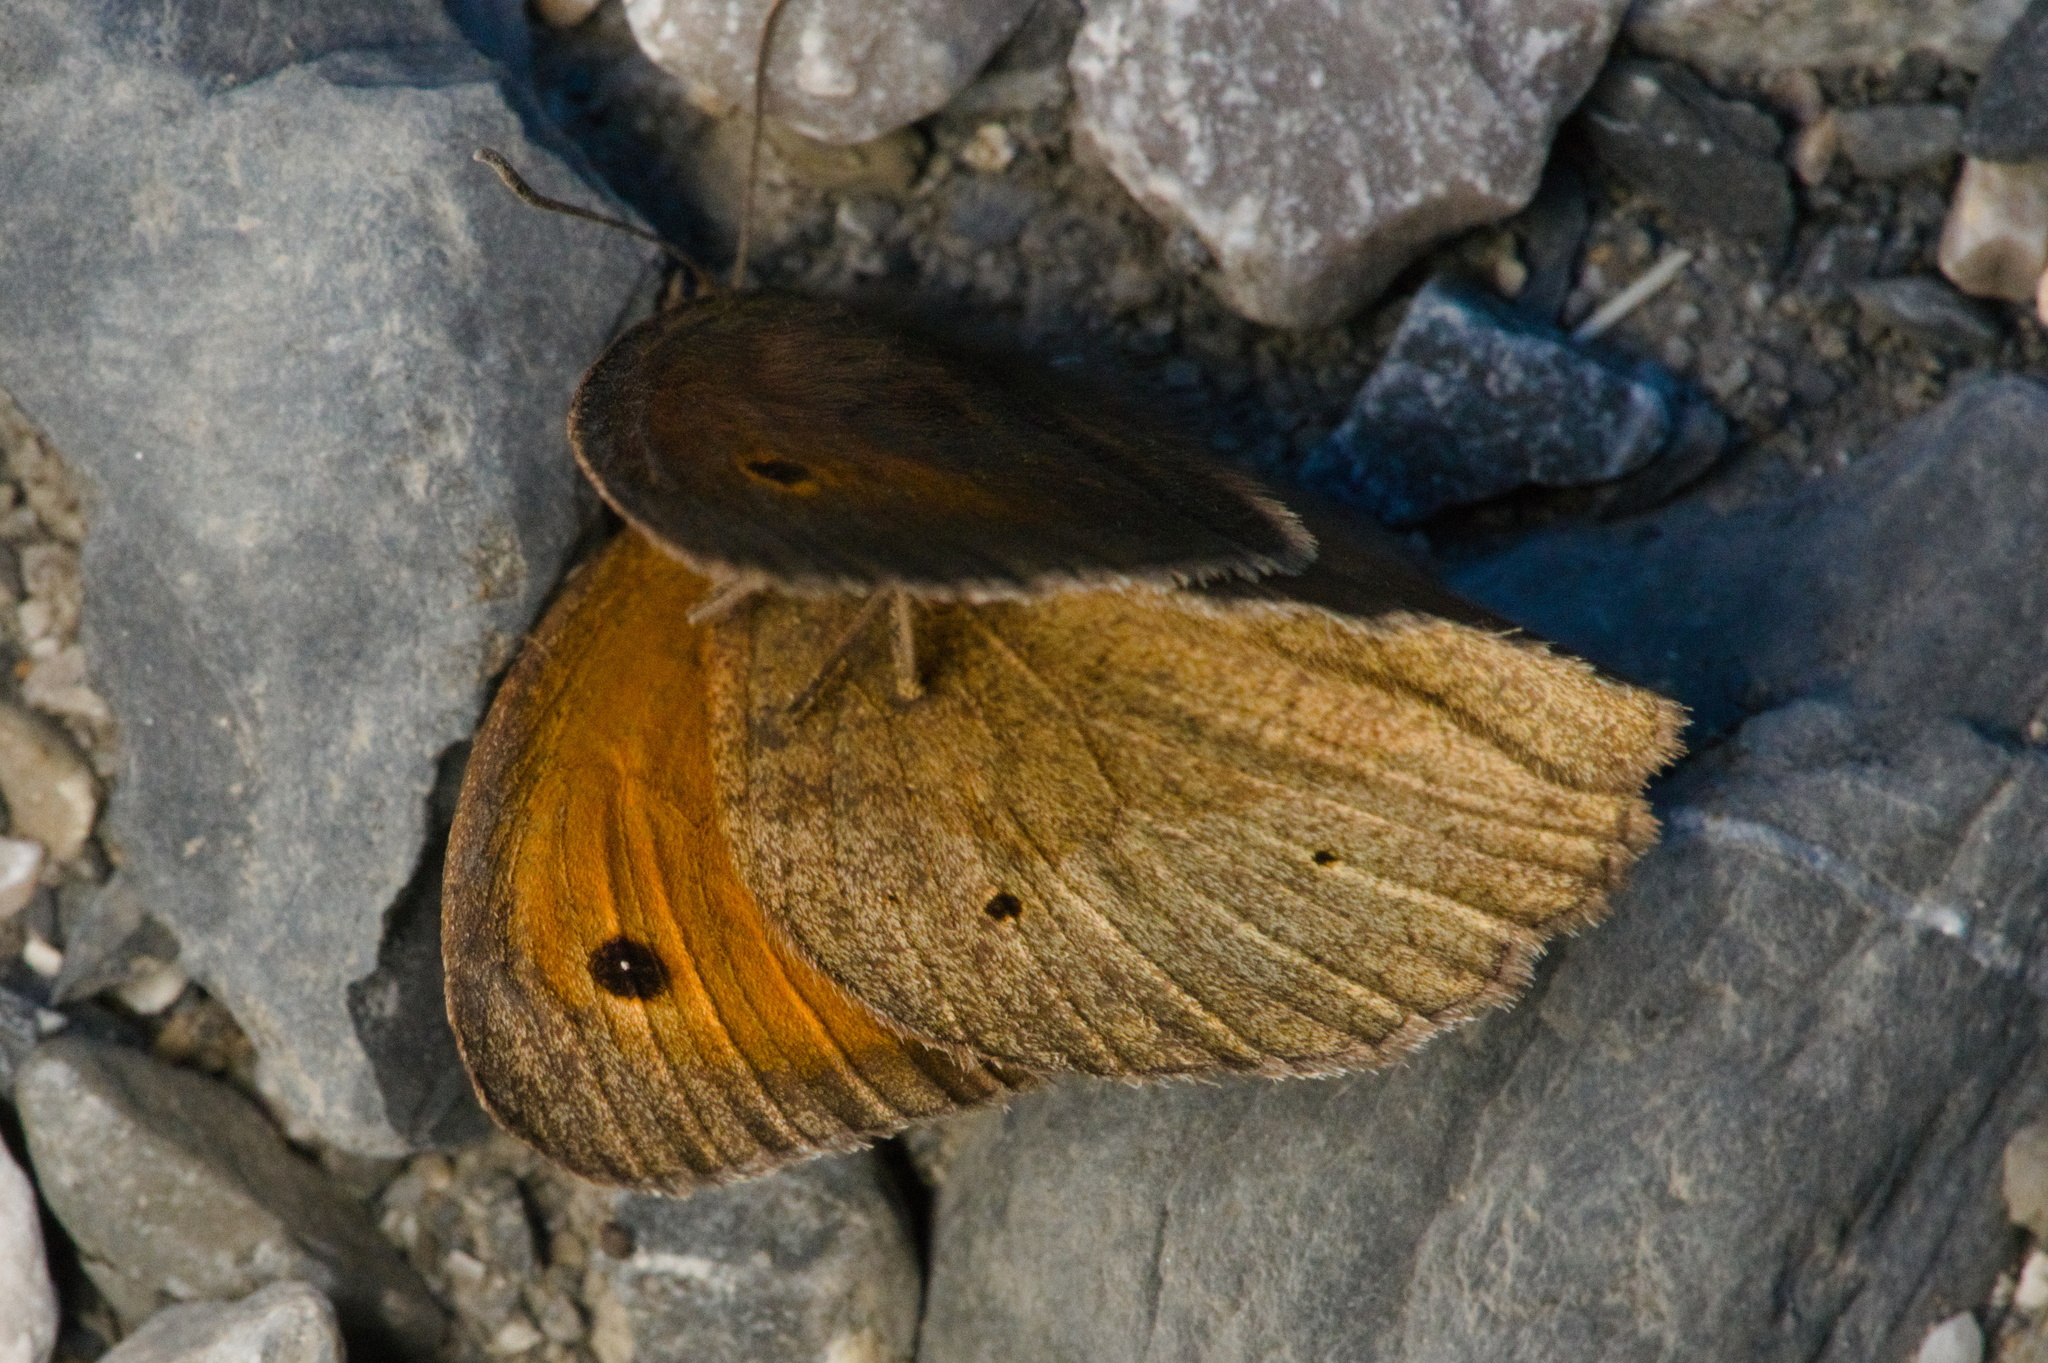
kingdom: Animalia
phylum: Arthropoda
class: Insecta
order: Lepidoptera
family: Nymphalidae
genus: Maniola
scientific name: Maniola jurtina
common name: Meadow brown
